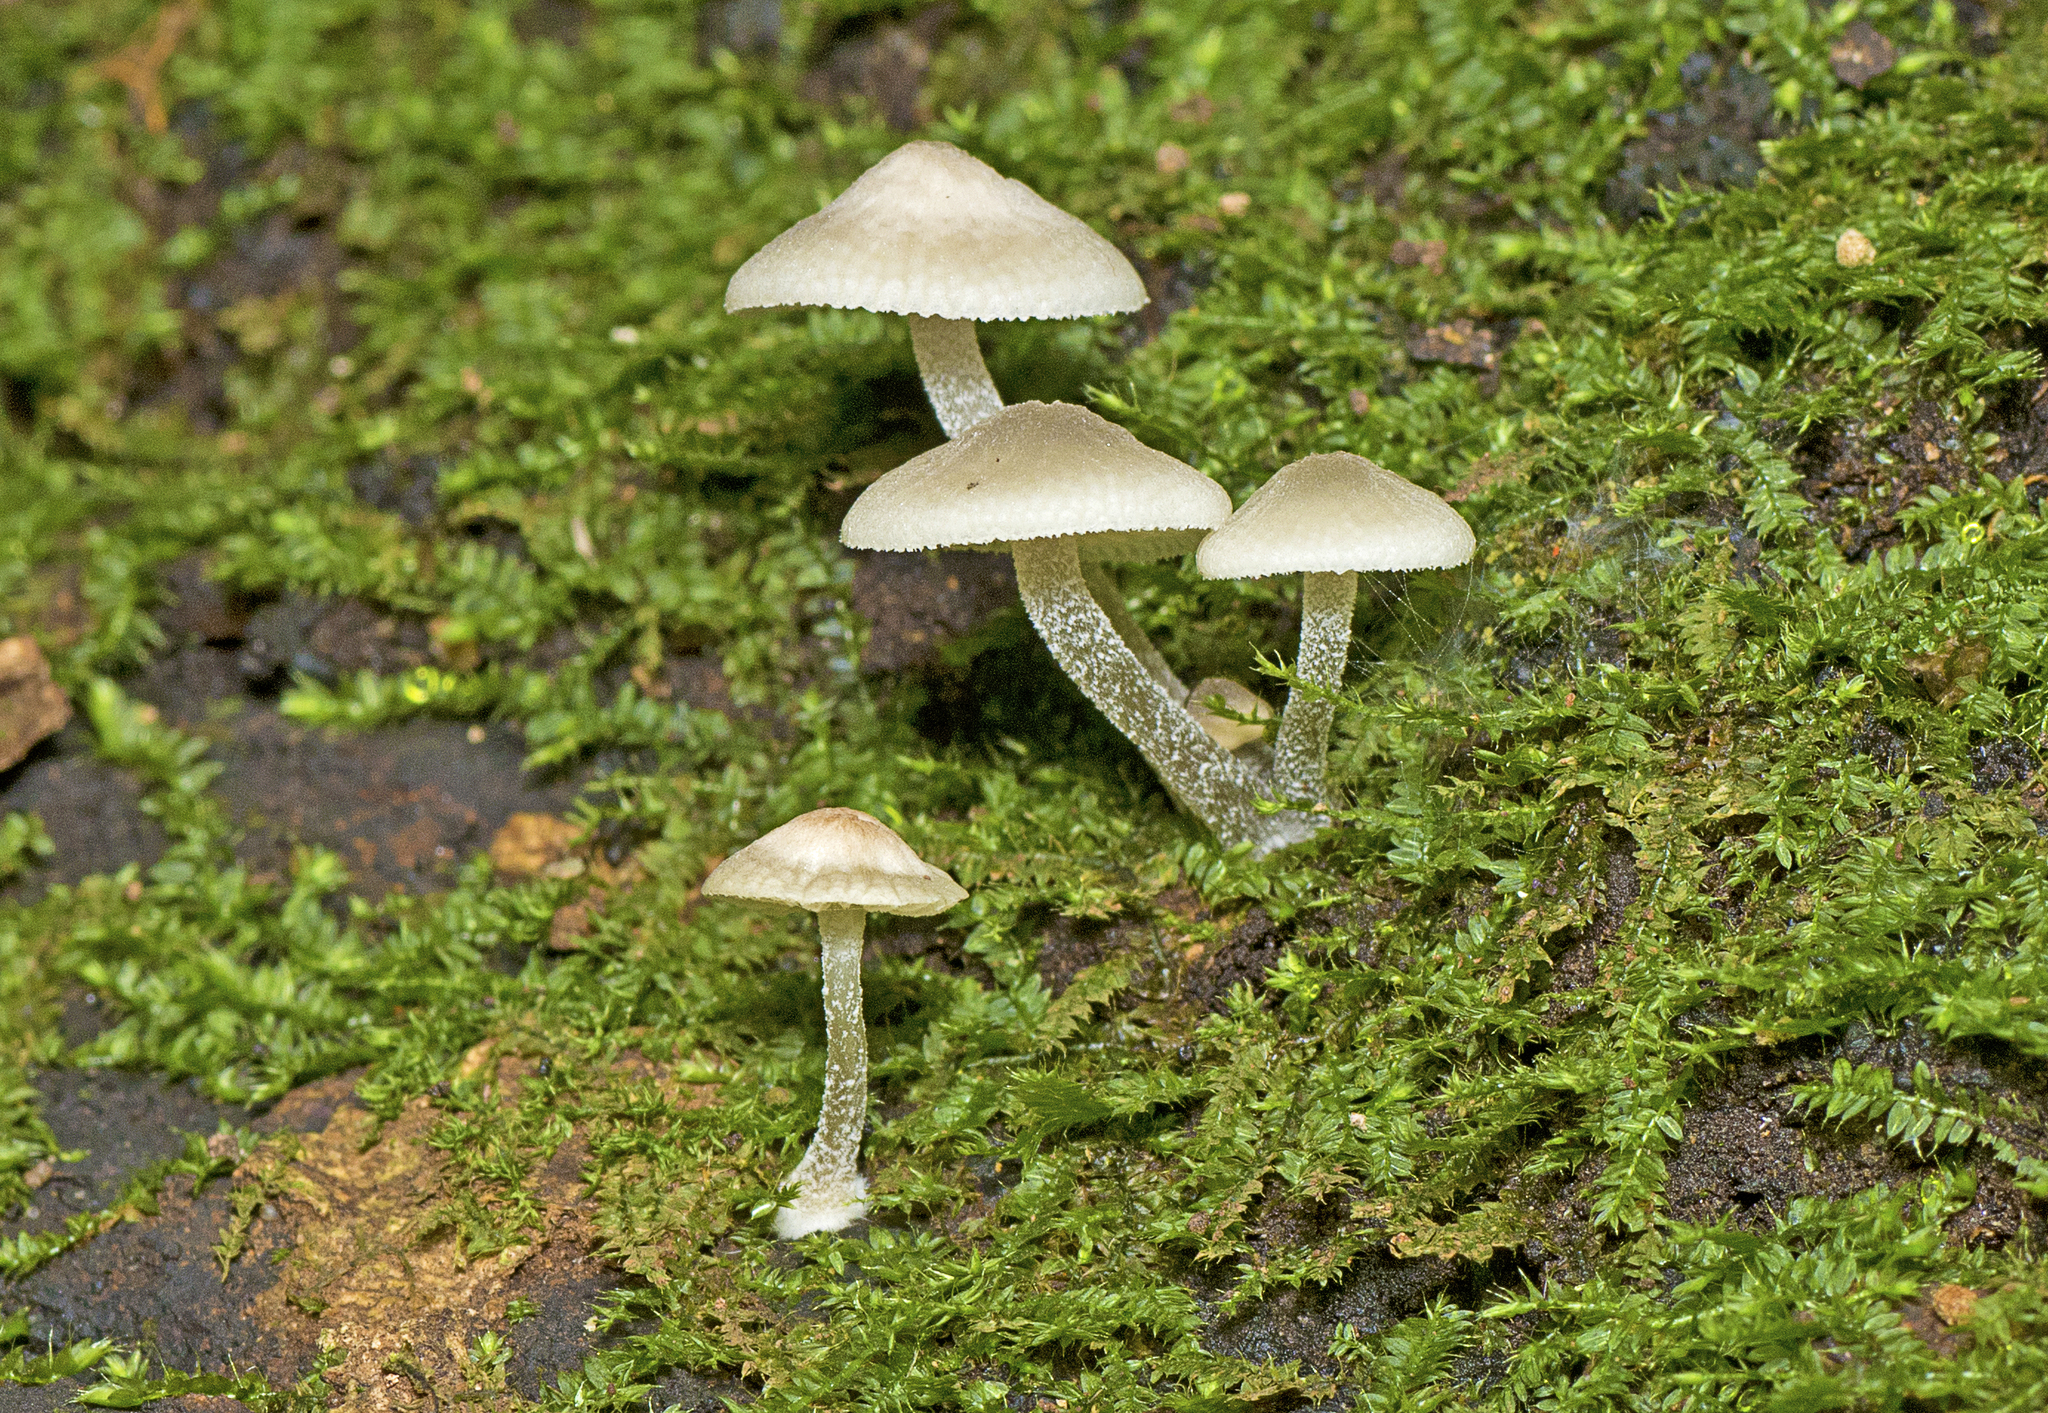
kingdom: Fungi
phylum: Basidiomycota
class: Agaricomycetes
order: Agaricales
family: Mycenaceae
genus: Filoboletus
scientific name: Filoboletus manipularis
